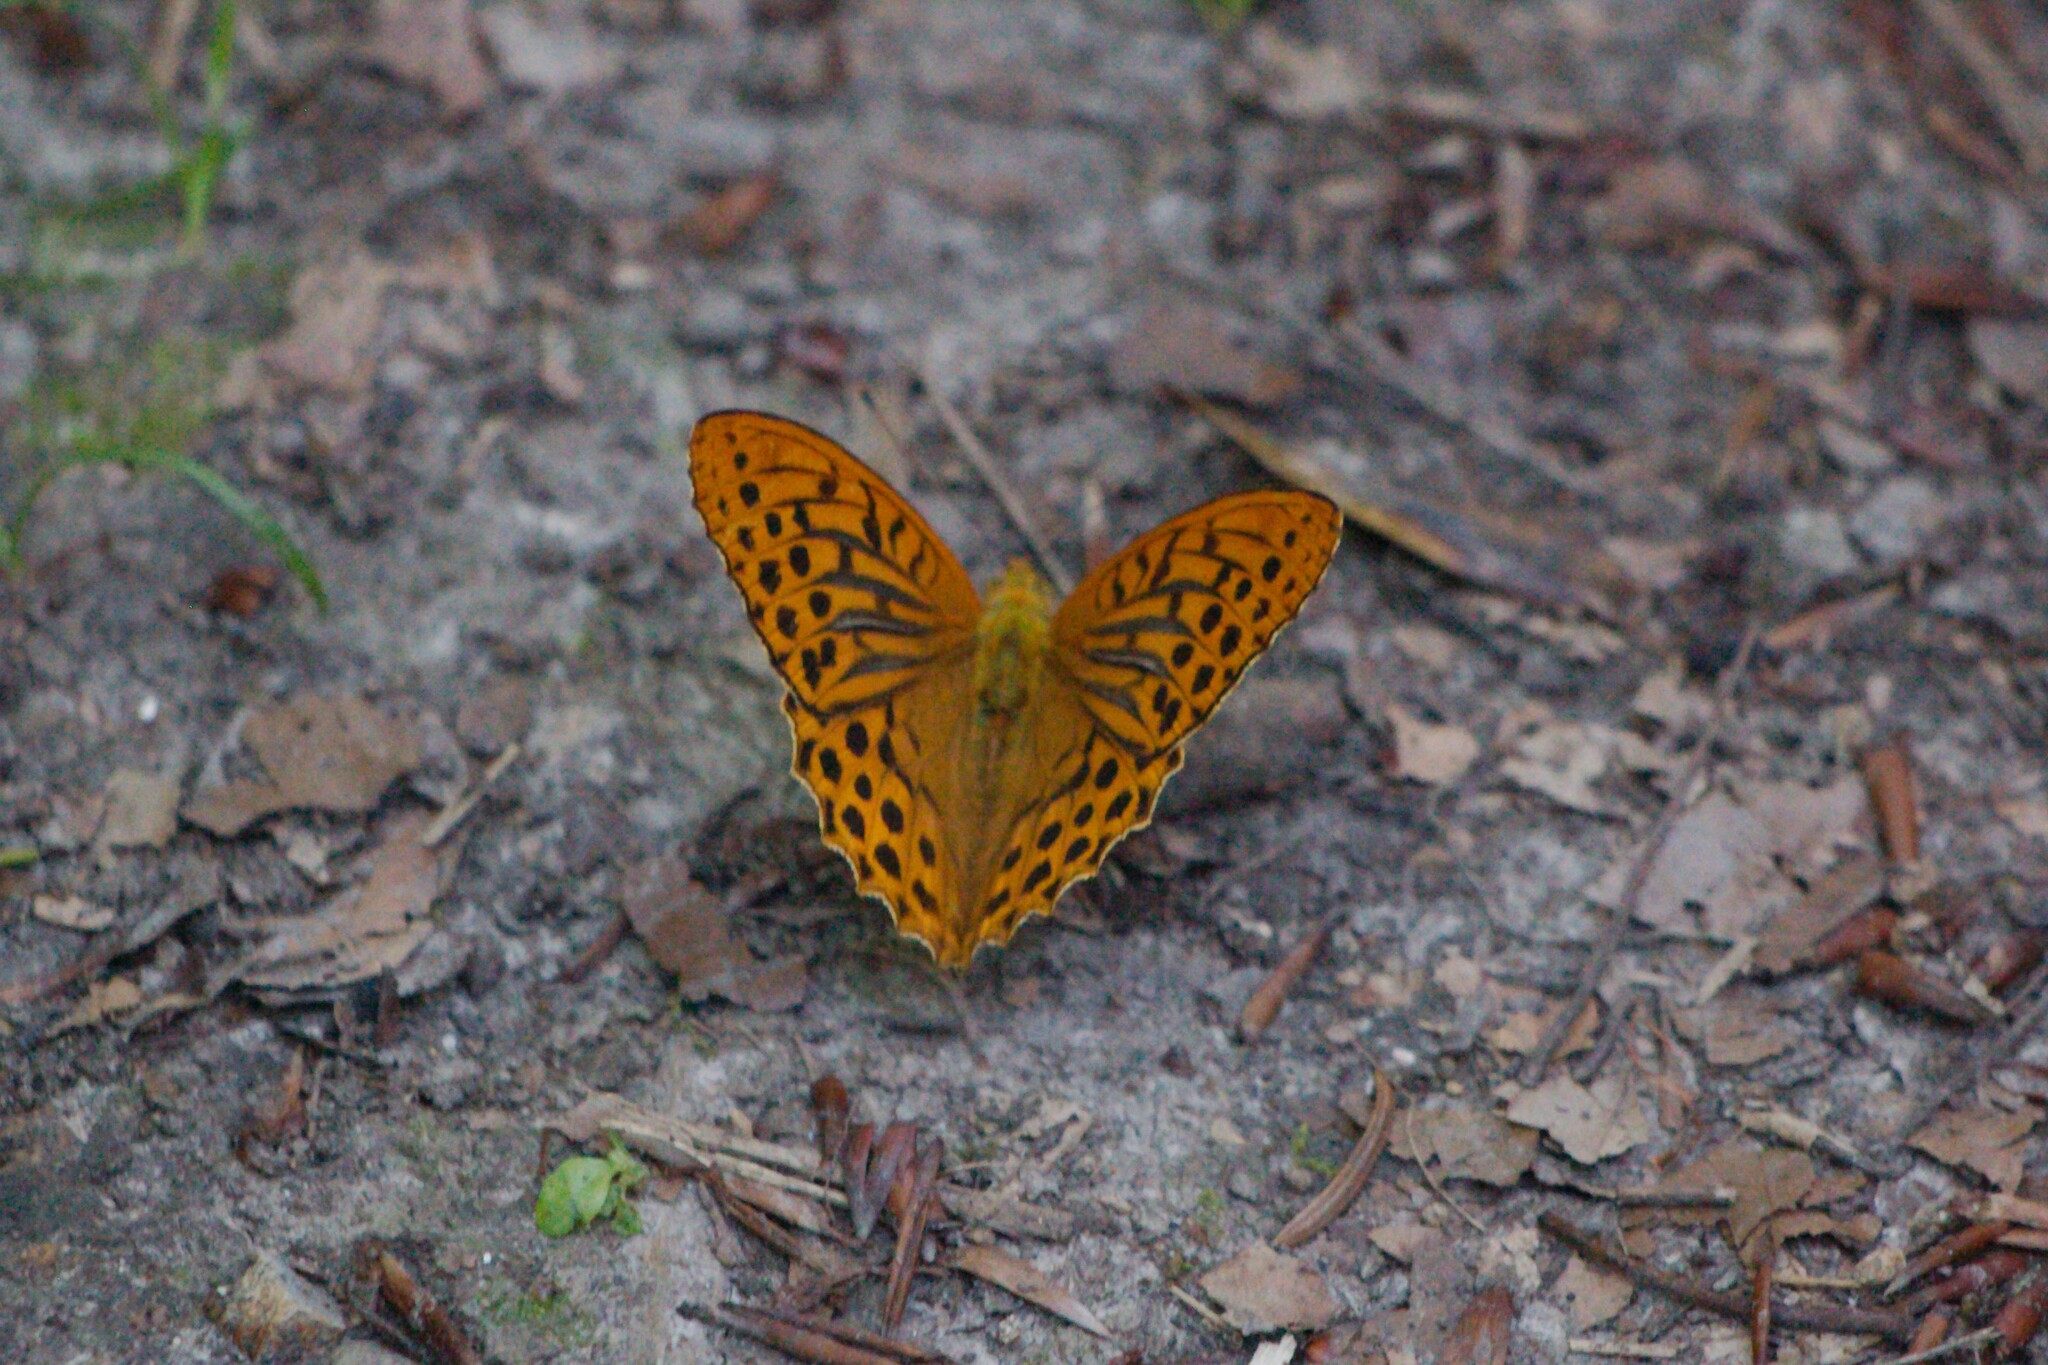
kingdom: Animalia
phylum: Arthropoda
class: Insecta
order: Lepidoptera
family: Nymphalidae
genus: Argynnis
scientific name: Argynnis paphia
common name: Silver-washed fritillary
